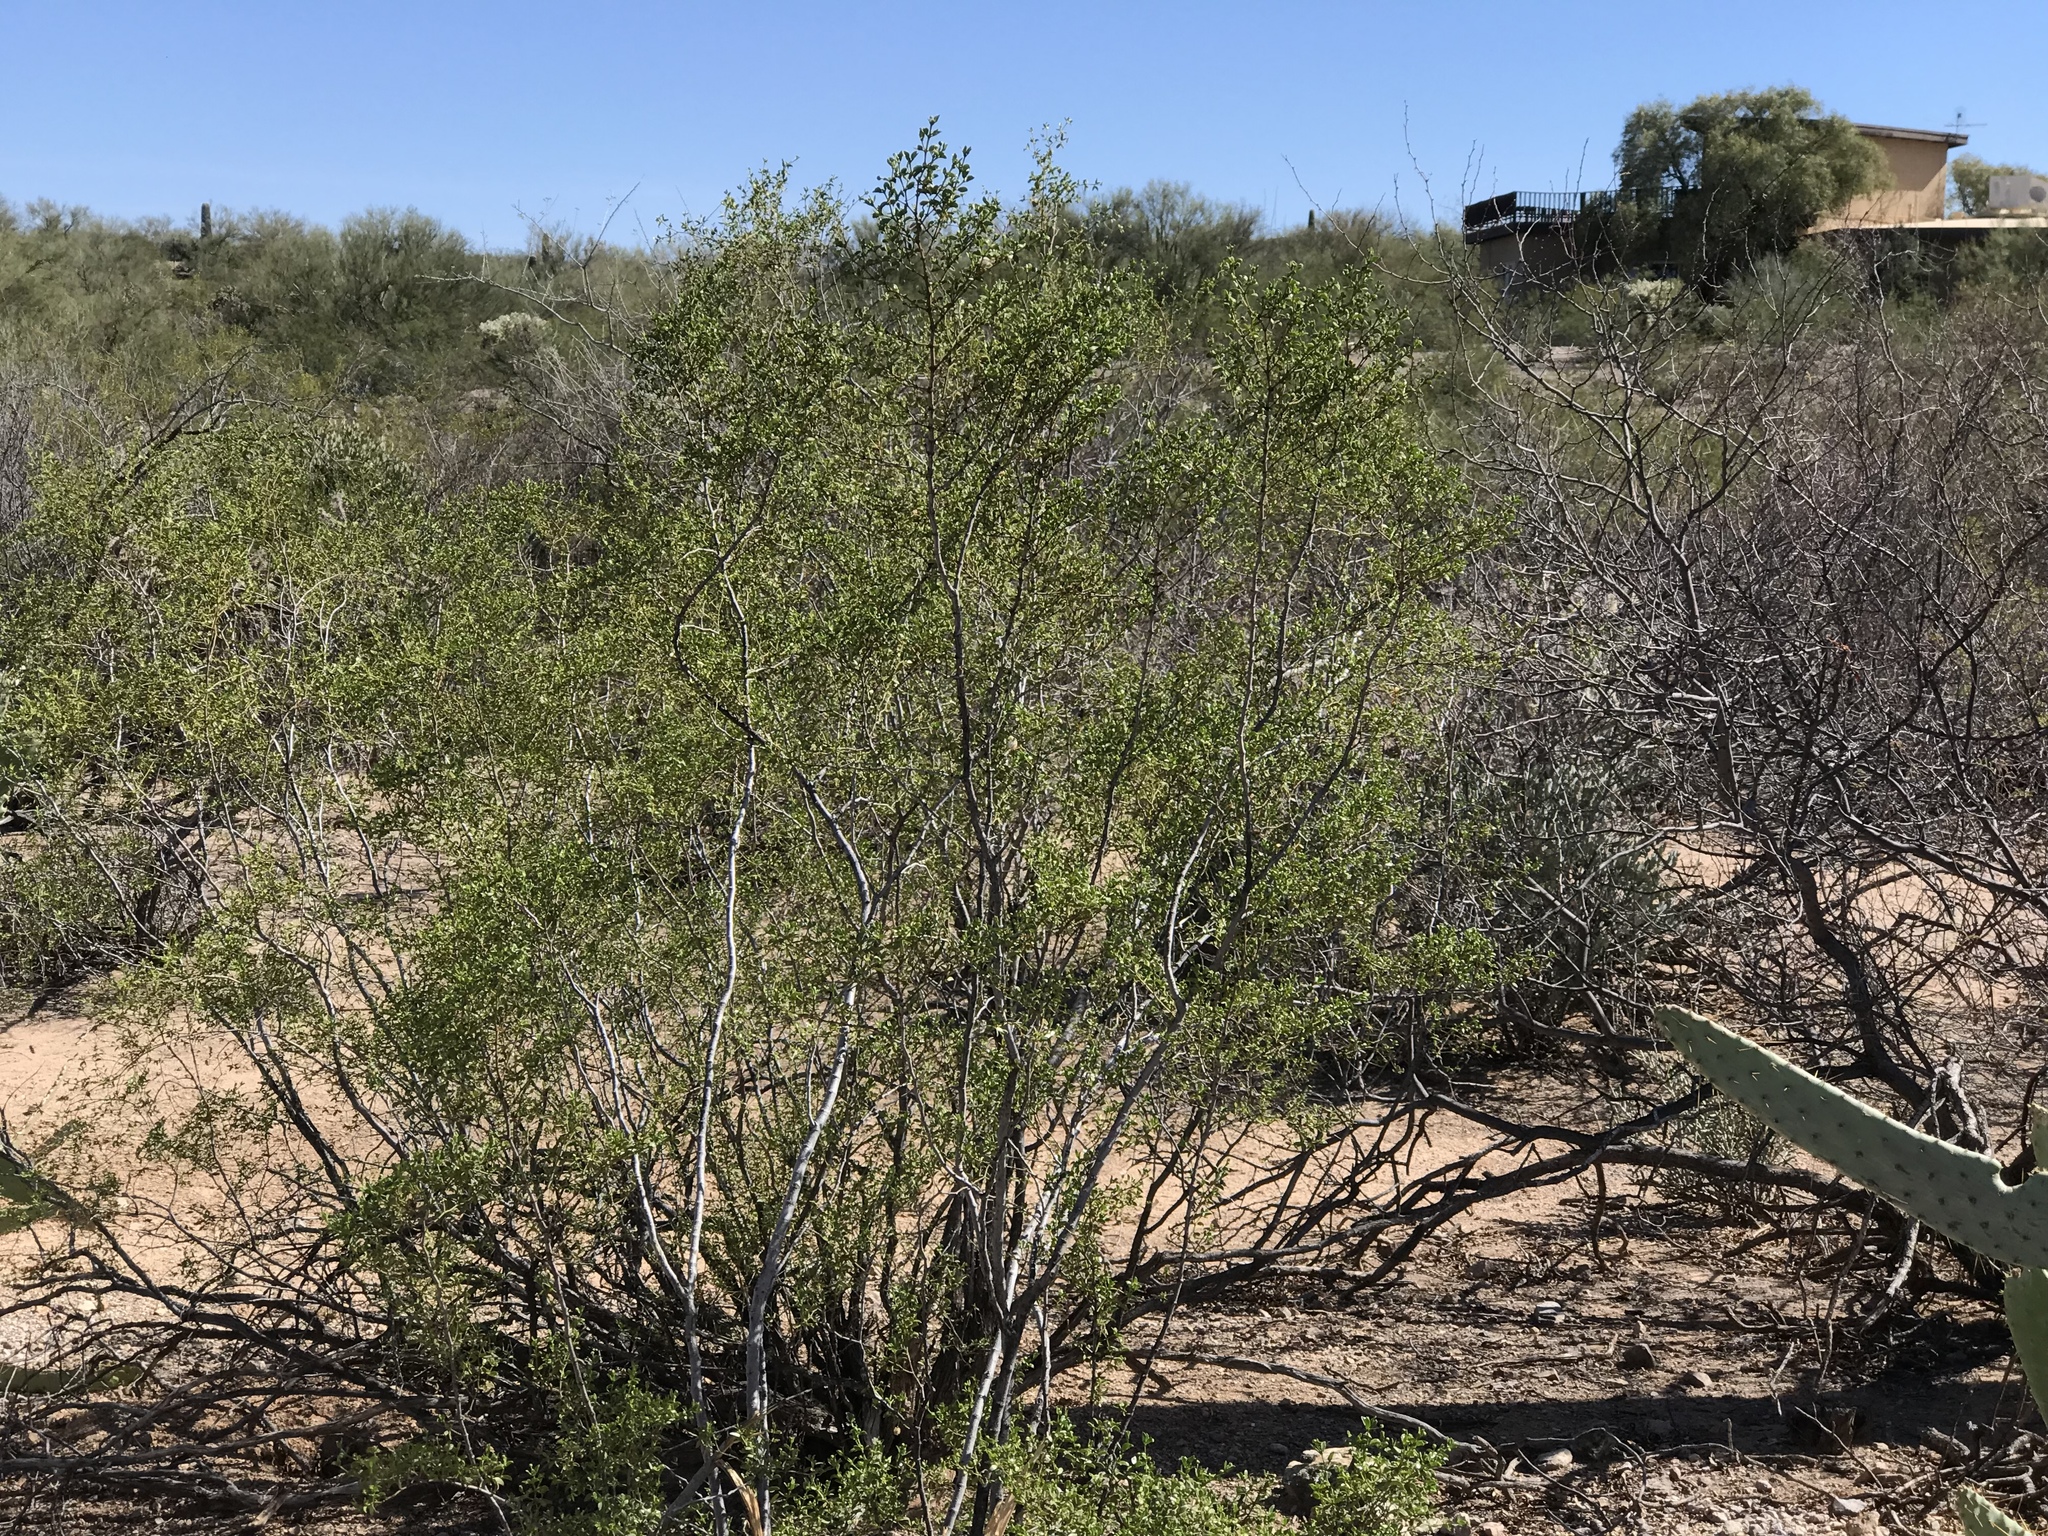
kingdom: Plantae
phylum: Tracheophyta
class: Magnoliopsida
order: Zygophyllales
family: Zygophyllaceae
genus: Larrea
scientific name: Larrea tridentata
